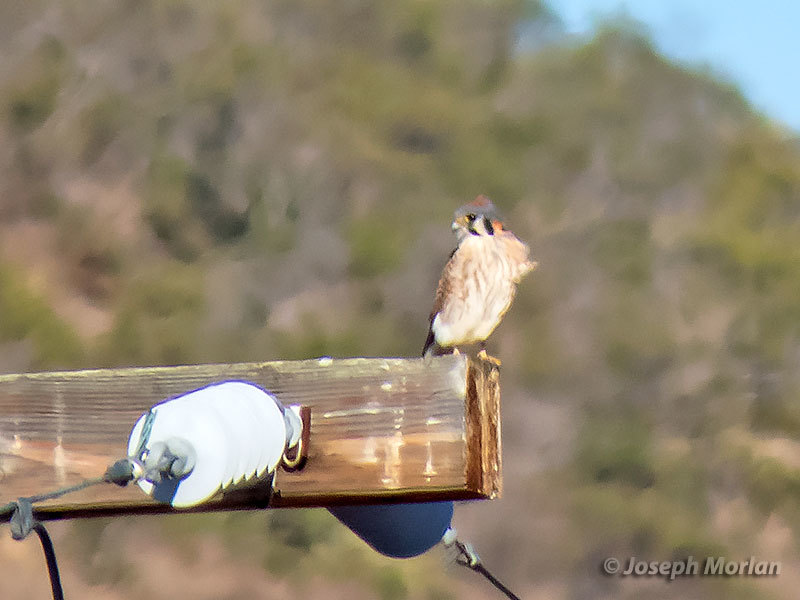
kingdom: Animalia
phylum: Chordata
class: Aves
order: Falconiformes
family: Falconidae
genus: Falco
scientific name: Falco sparverius
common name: American kestrel
